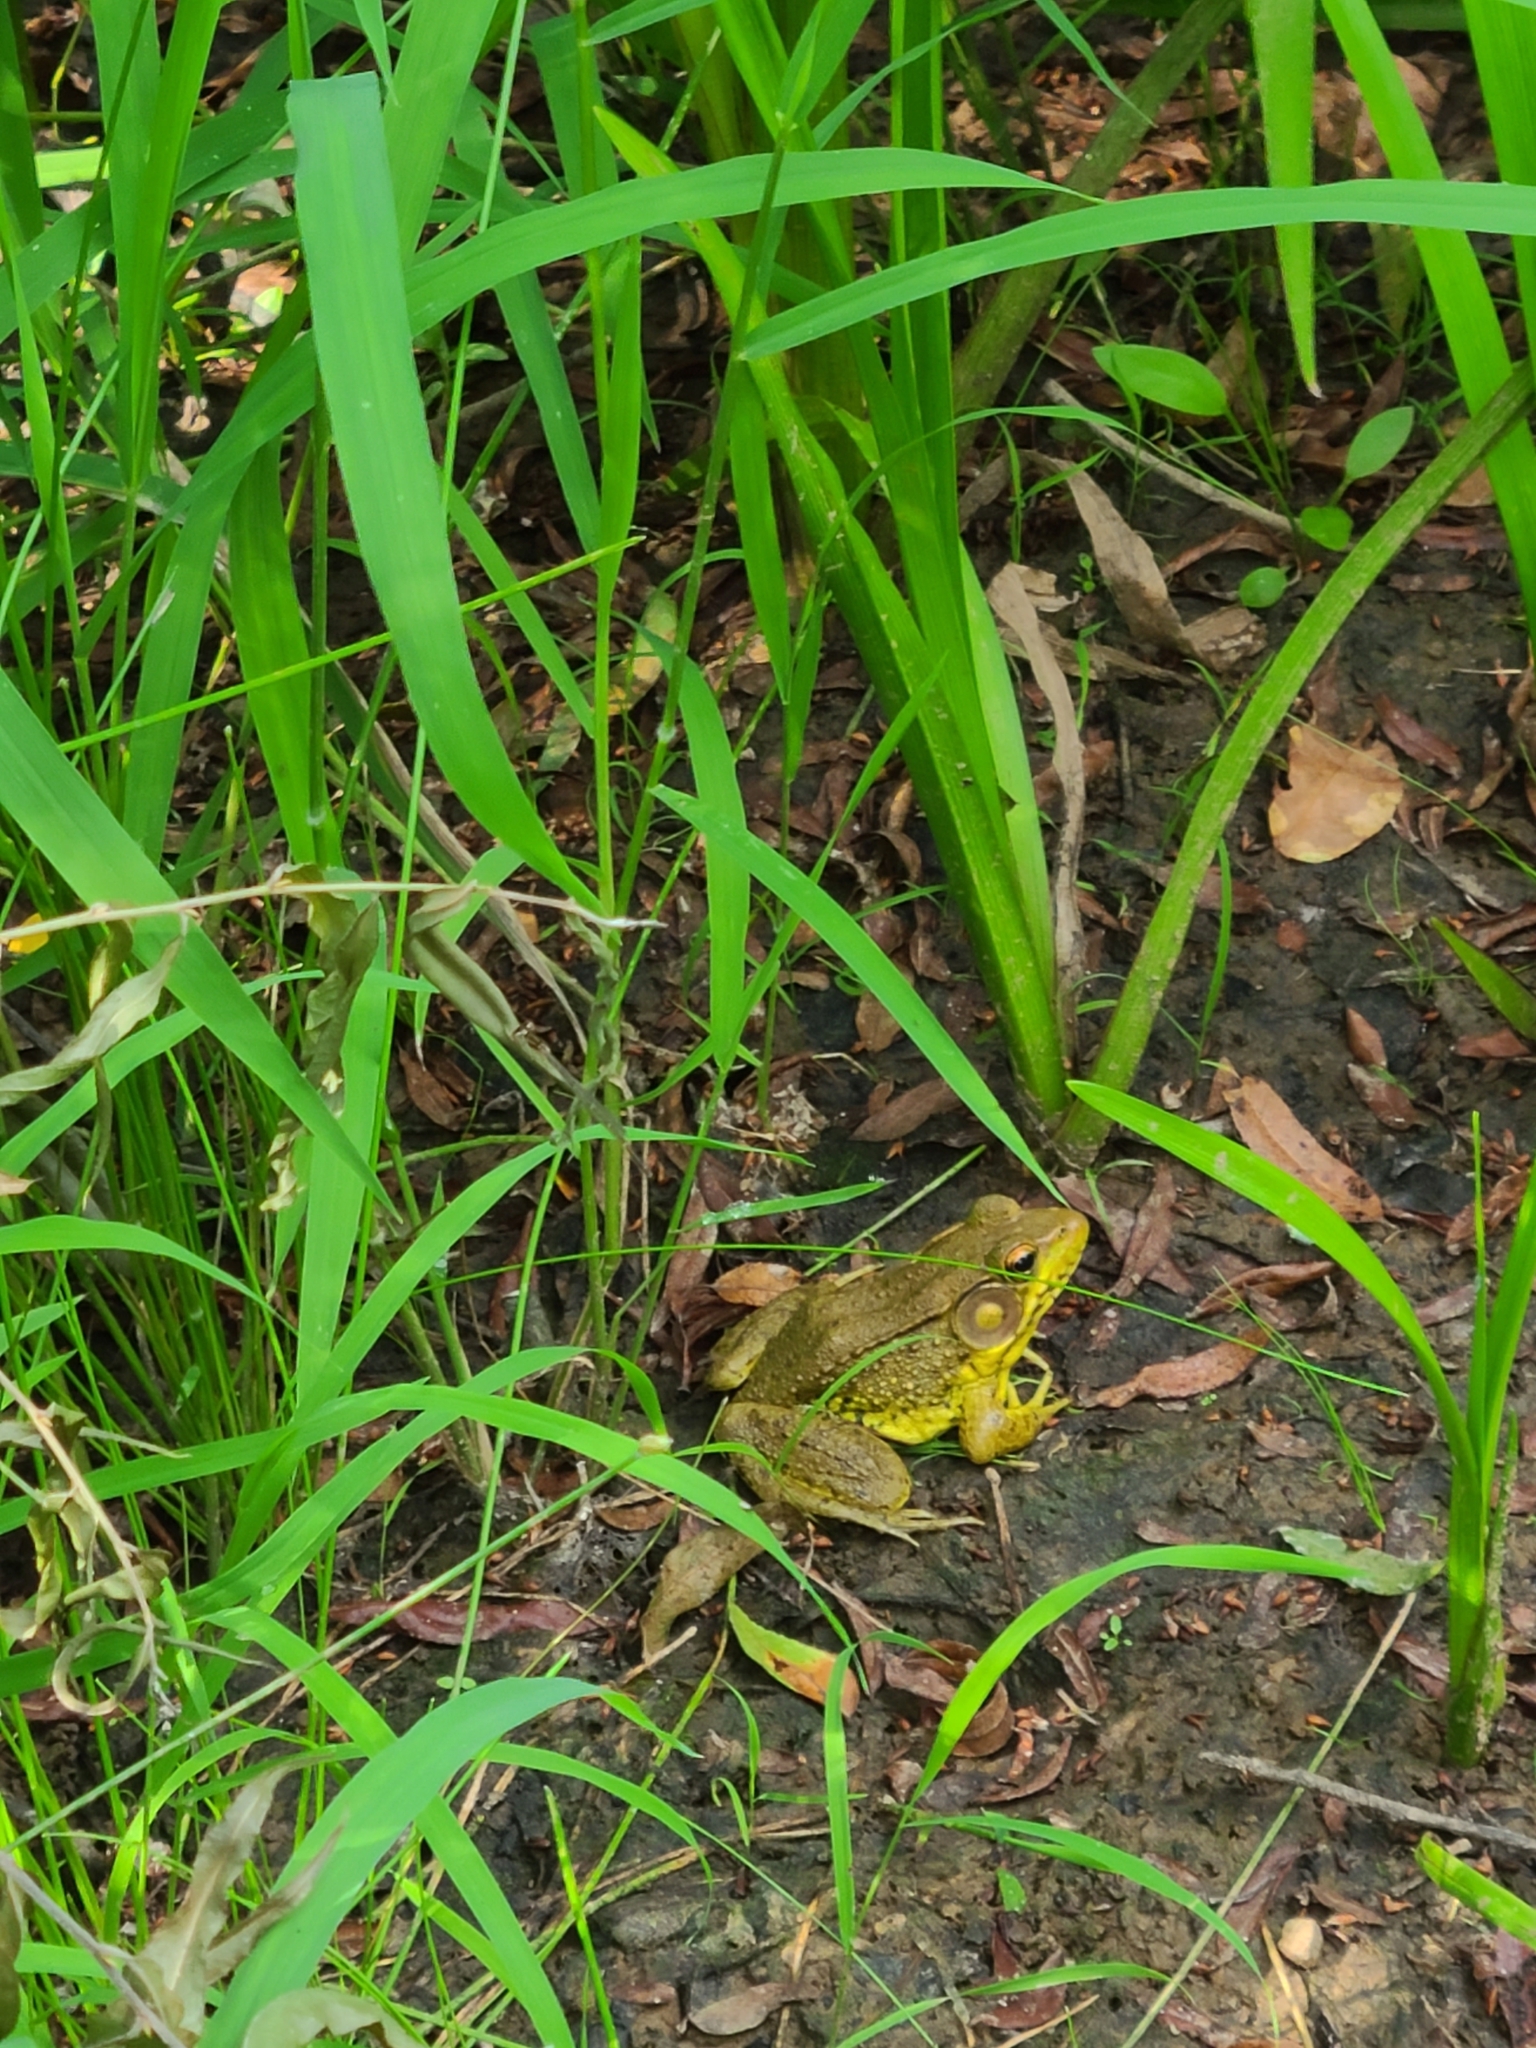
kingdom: Animalia
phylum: Chordata
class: Amphibia
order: Anura
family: Ranidae
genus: Lithobates
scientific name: Lithobates clamitans
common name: Green frog
